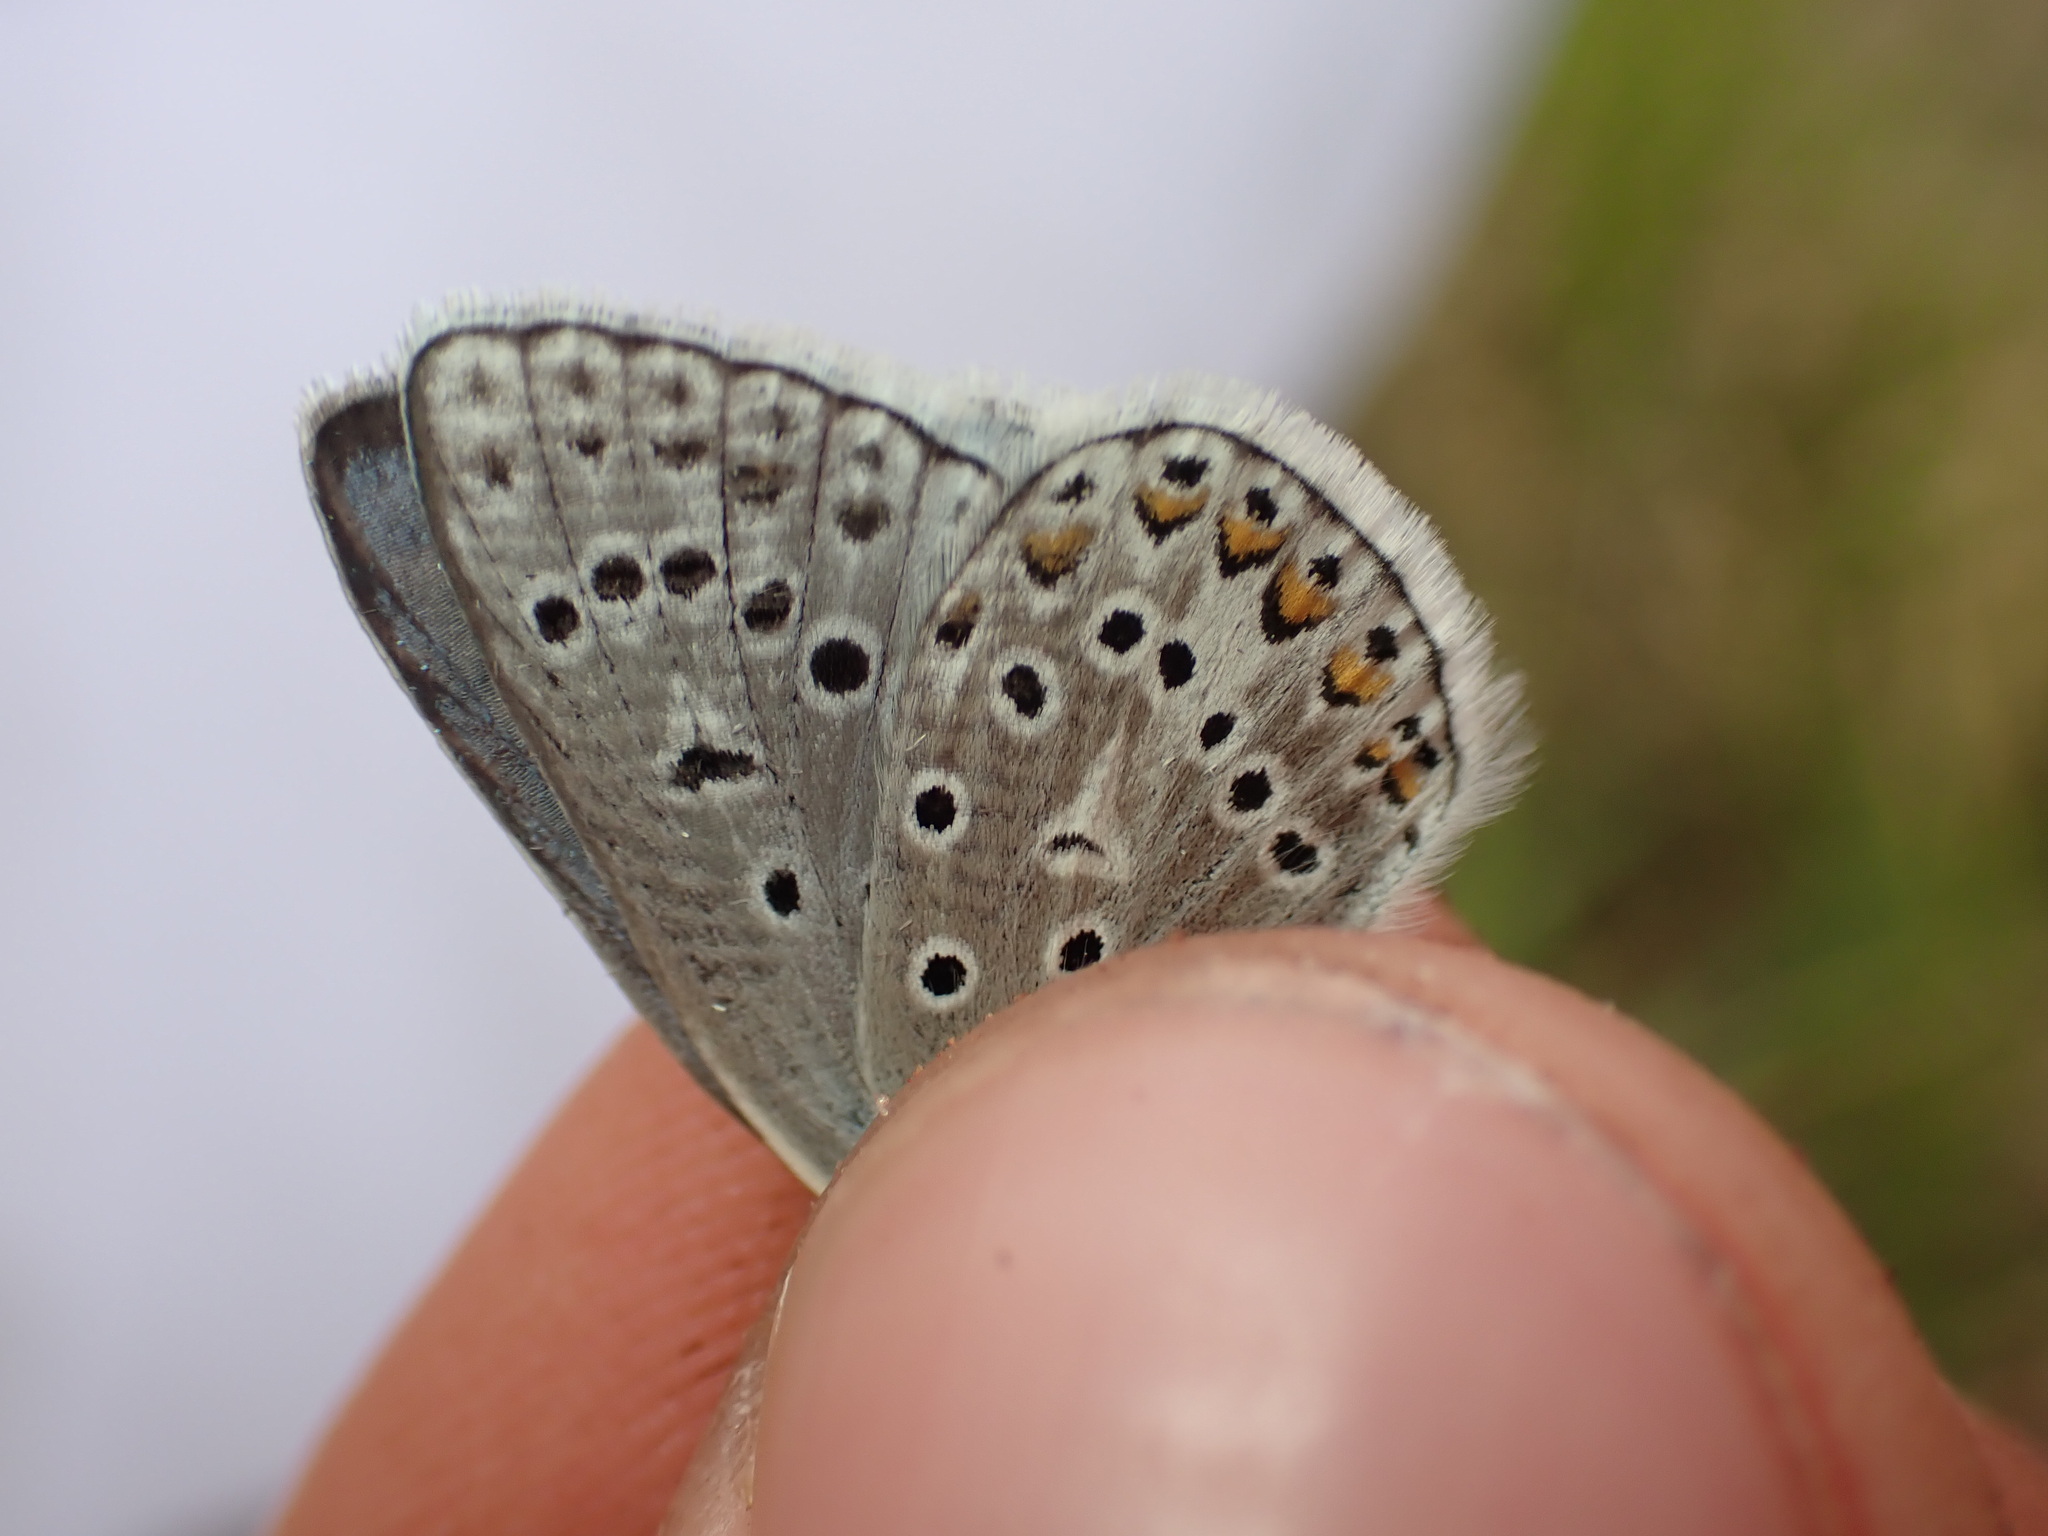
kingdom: Animalia
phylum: Arthropoda
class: Insecta
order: Lepidoptera
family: Lycaenidae
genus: Polyommatus
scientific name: Polyommatus eros
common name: Eros blue
